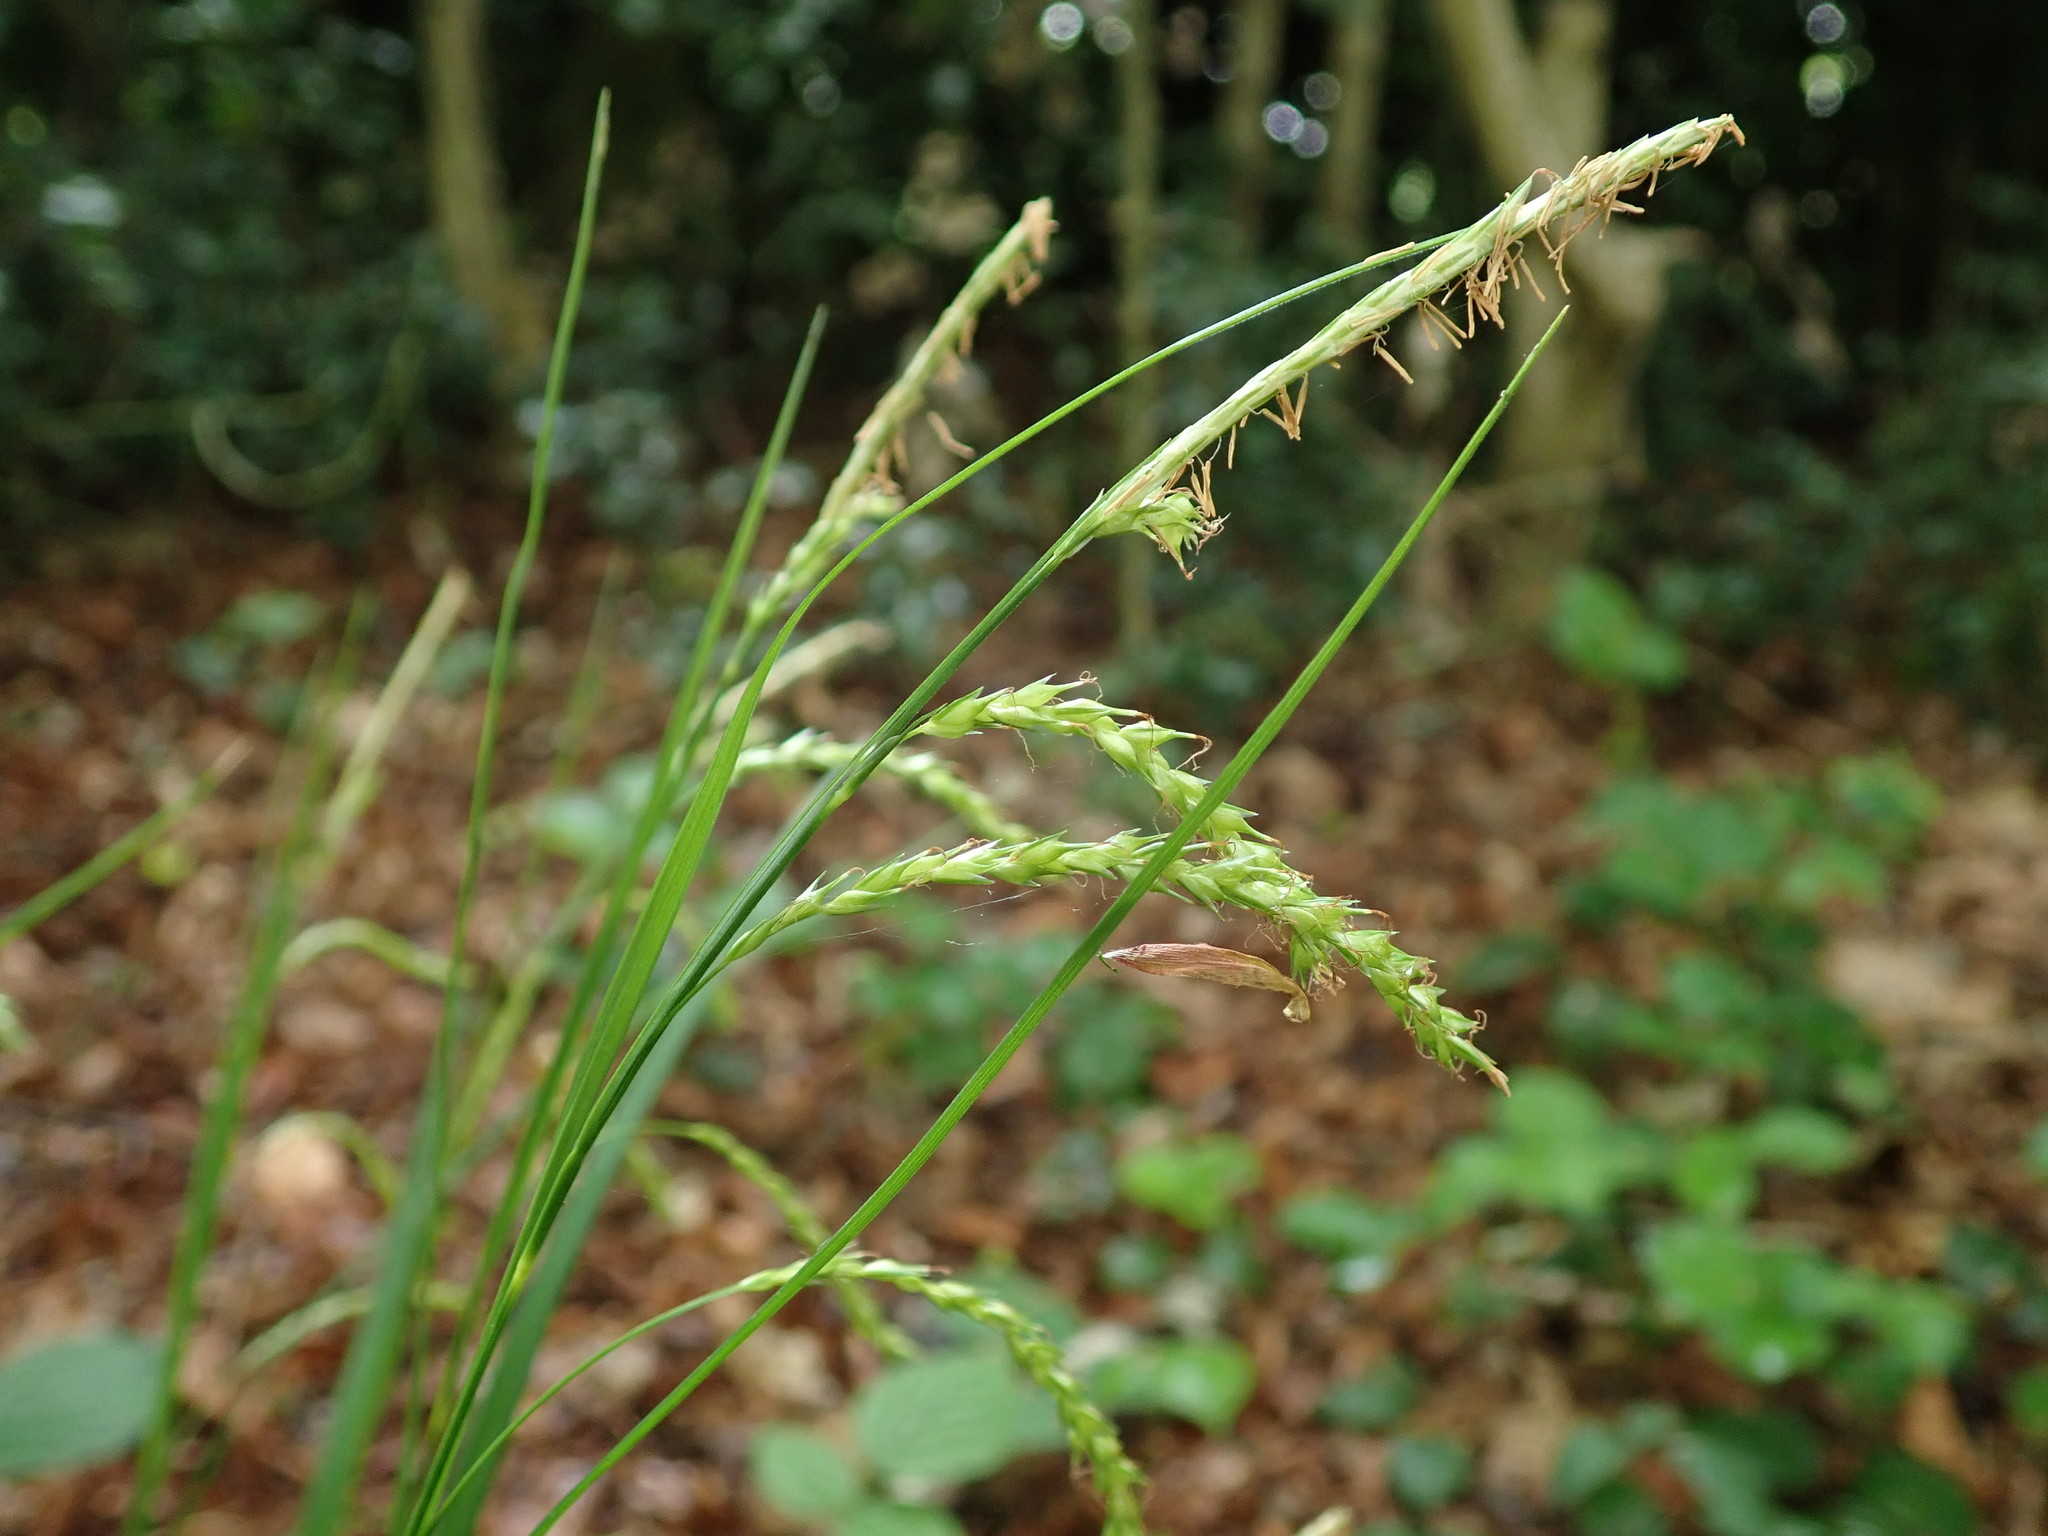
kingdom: Plantae
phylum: Tracheophyta
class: Liliopsida
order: Poales
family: Cyperaceae
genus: Carex
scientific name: Carex sylvatica
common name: Wood-sedge
